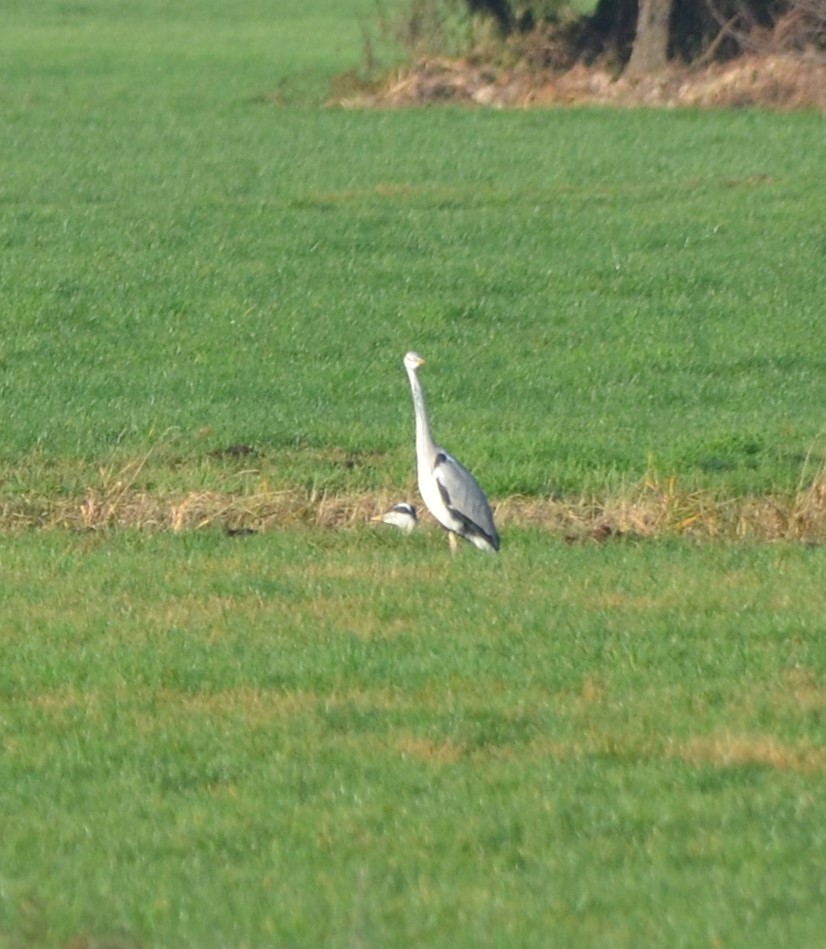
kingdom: Animalia
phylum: Chordata
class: Aves
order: Pelecaniformes
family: Ardeidae
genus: Ardea
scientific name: Ardea cinerea
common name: Grey heron
